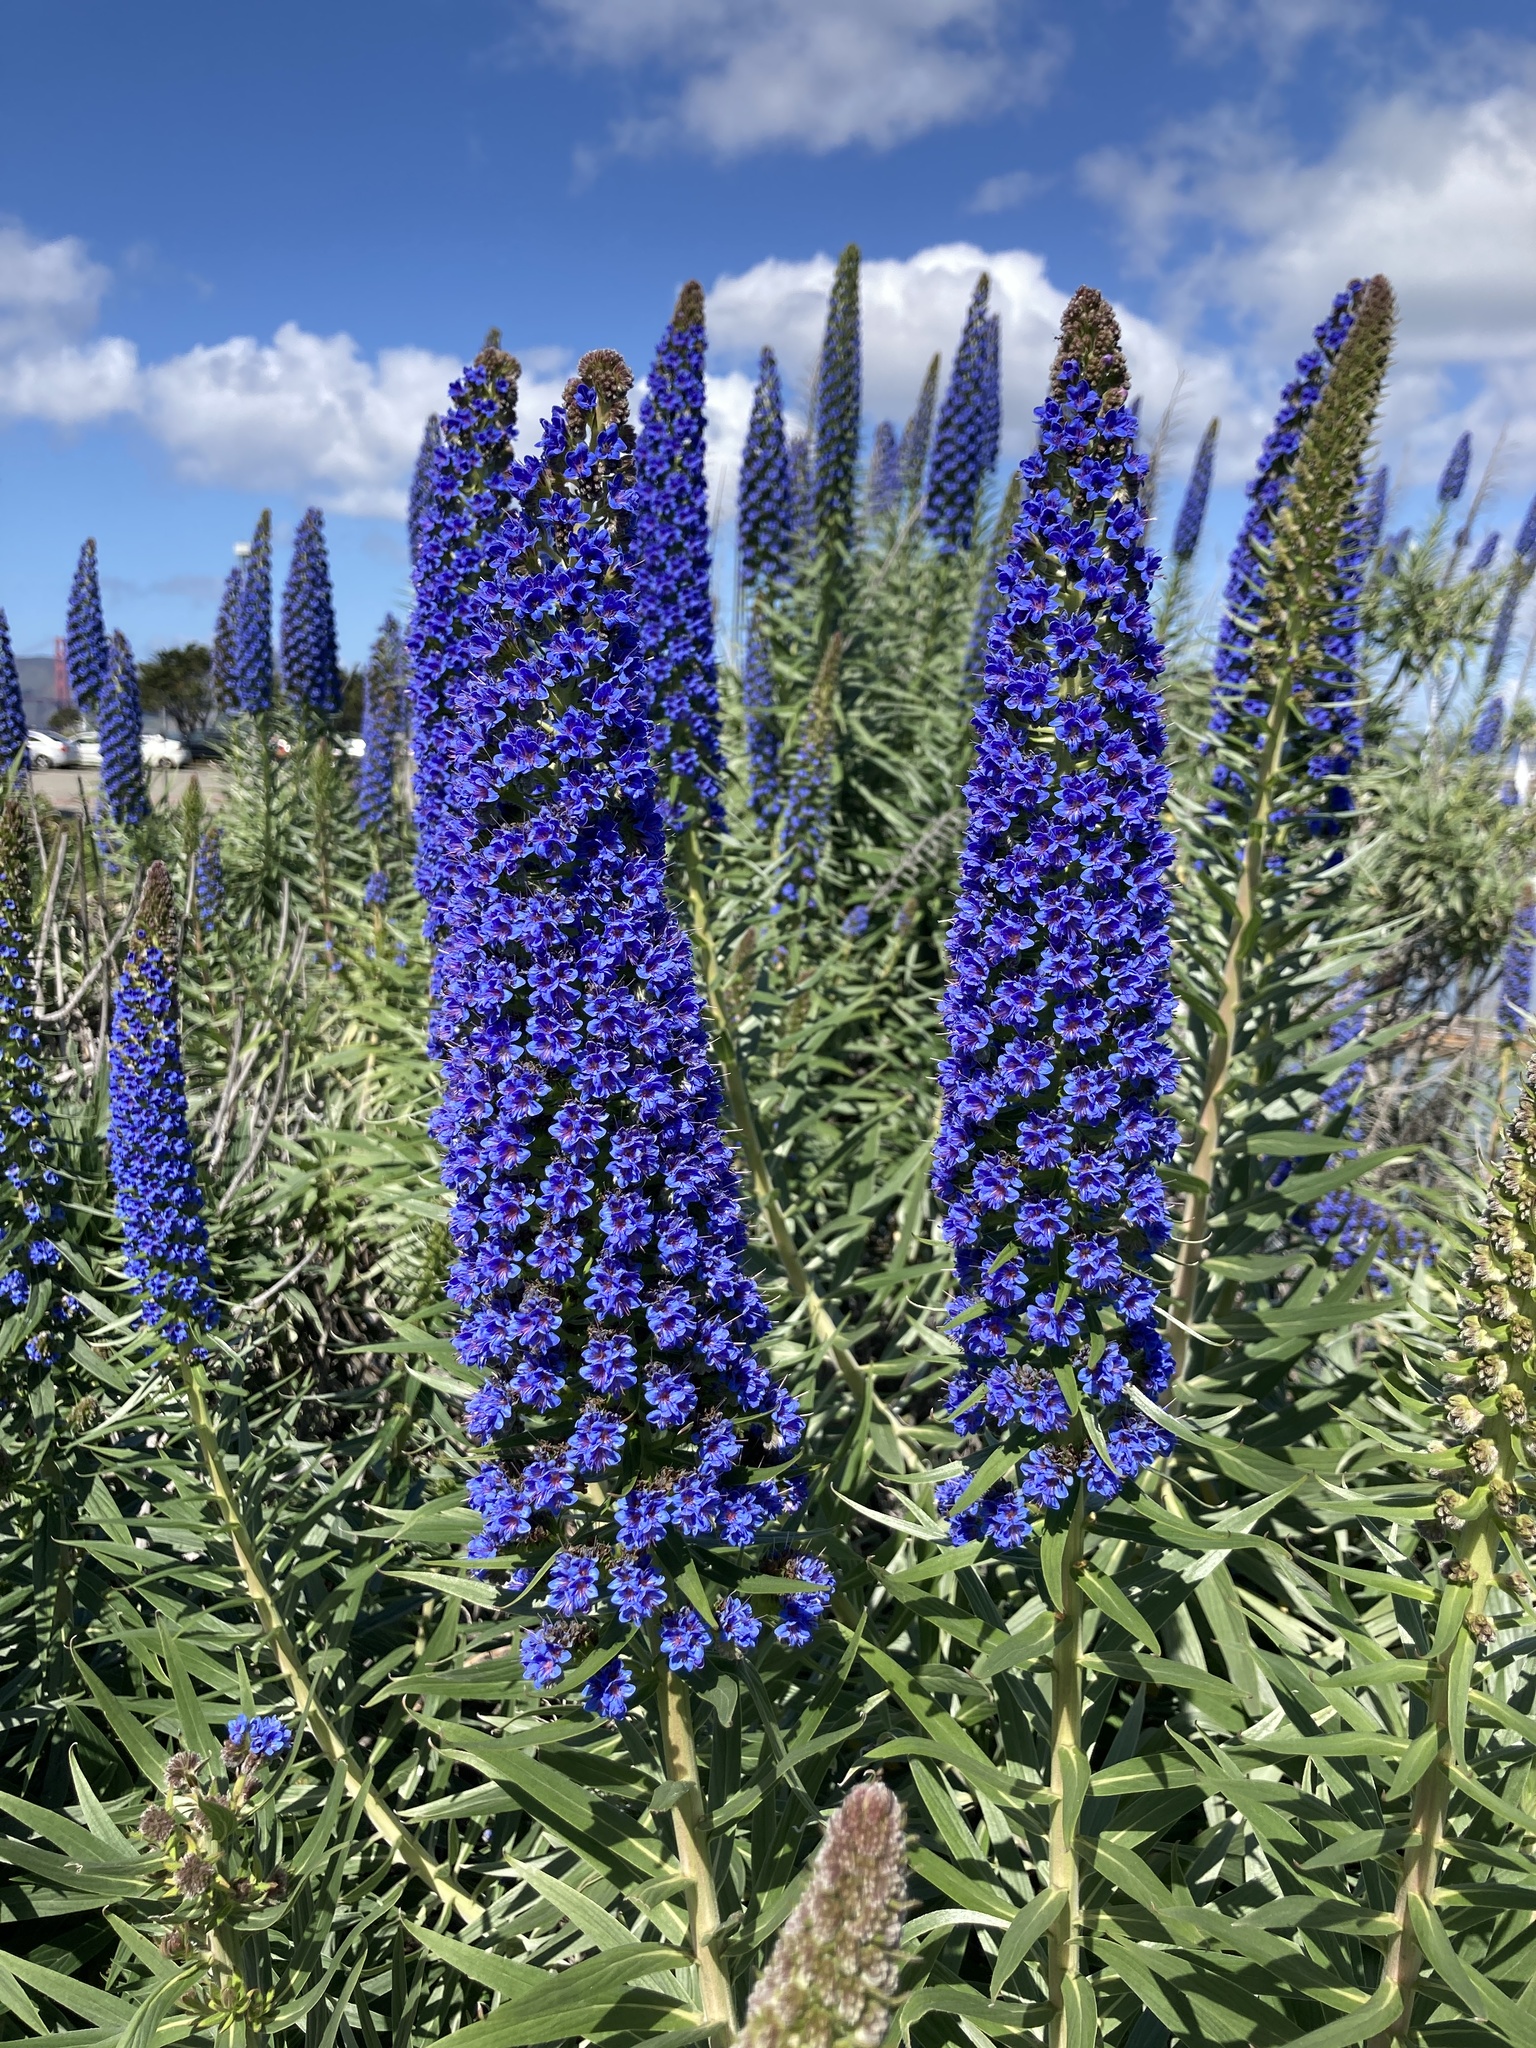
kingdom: Plantae
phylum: Tracheophyta
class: Magnoliopsida
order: Boraginales
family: Boraginaceae
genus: Echium
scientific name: Echium candicans
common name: Pride of madeira
